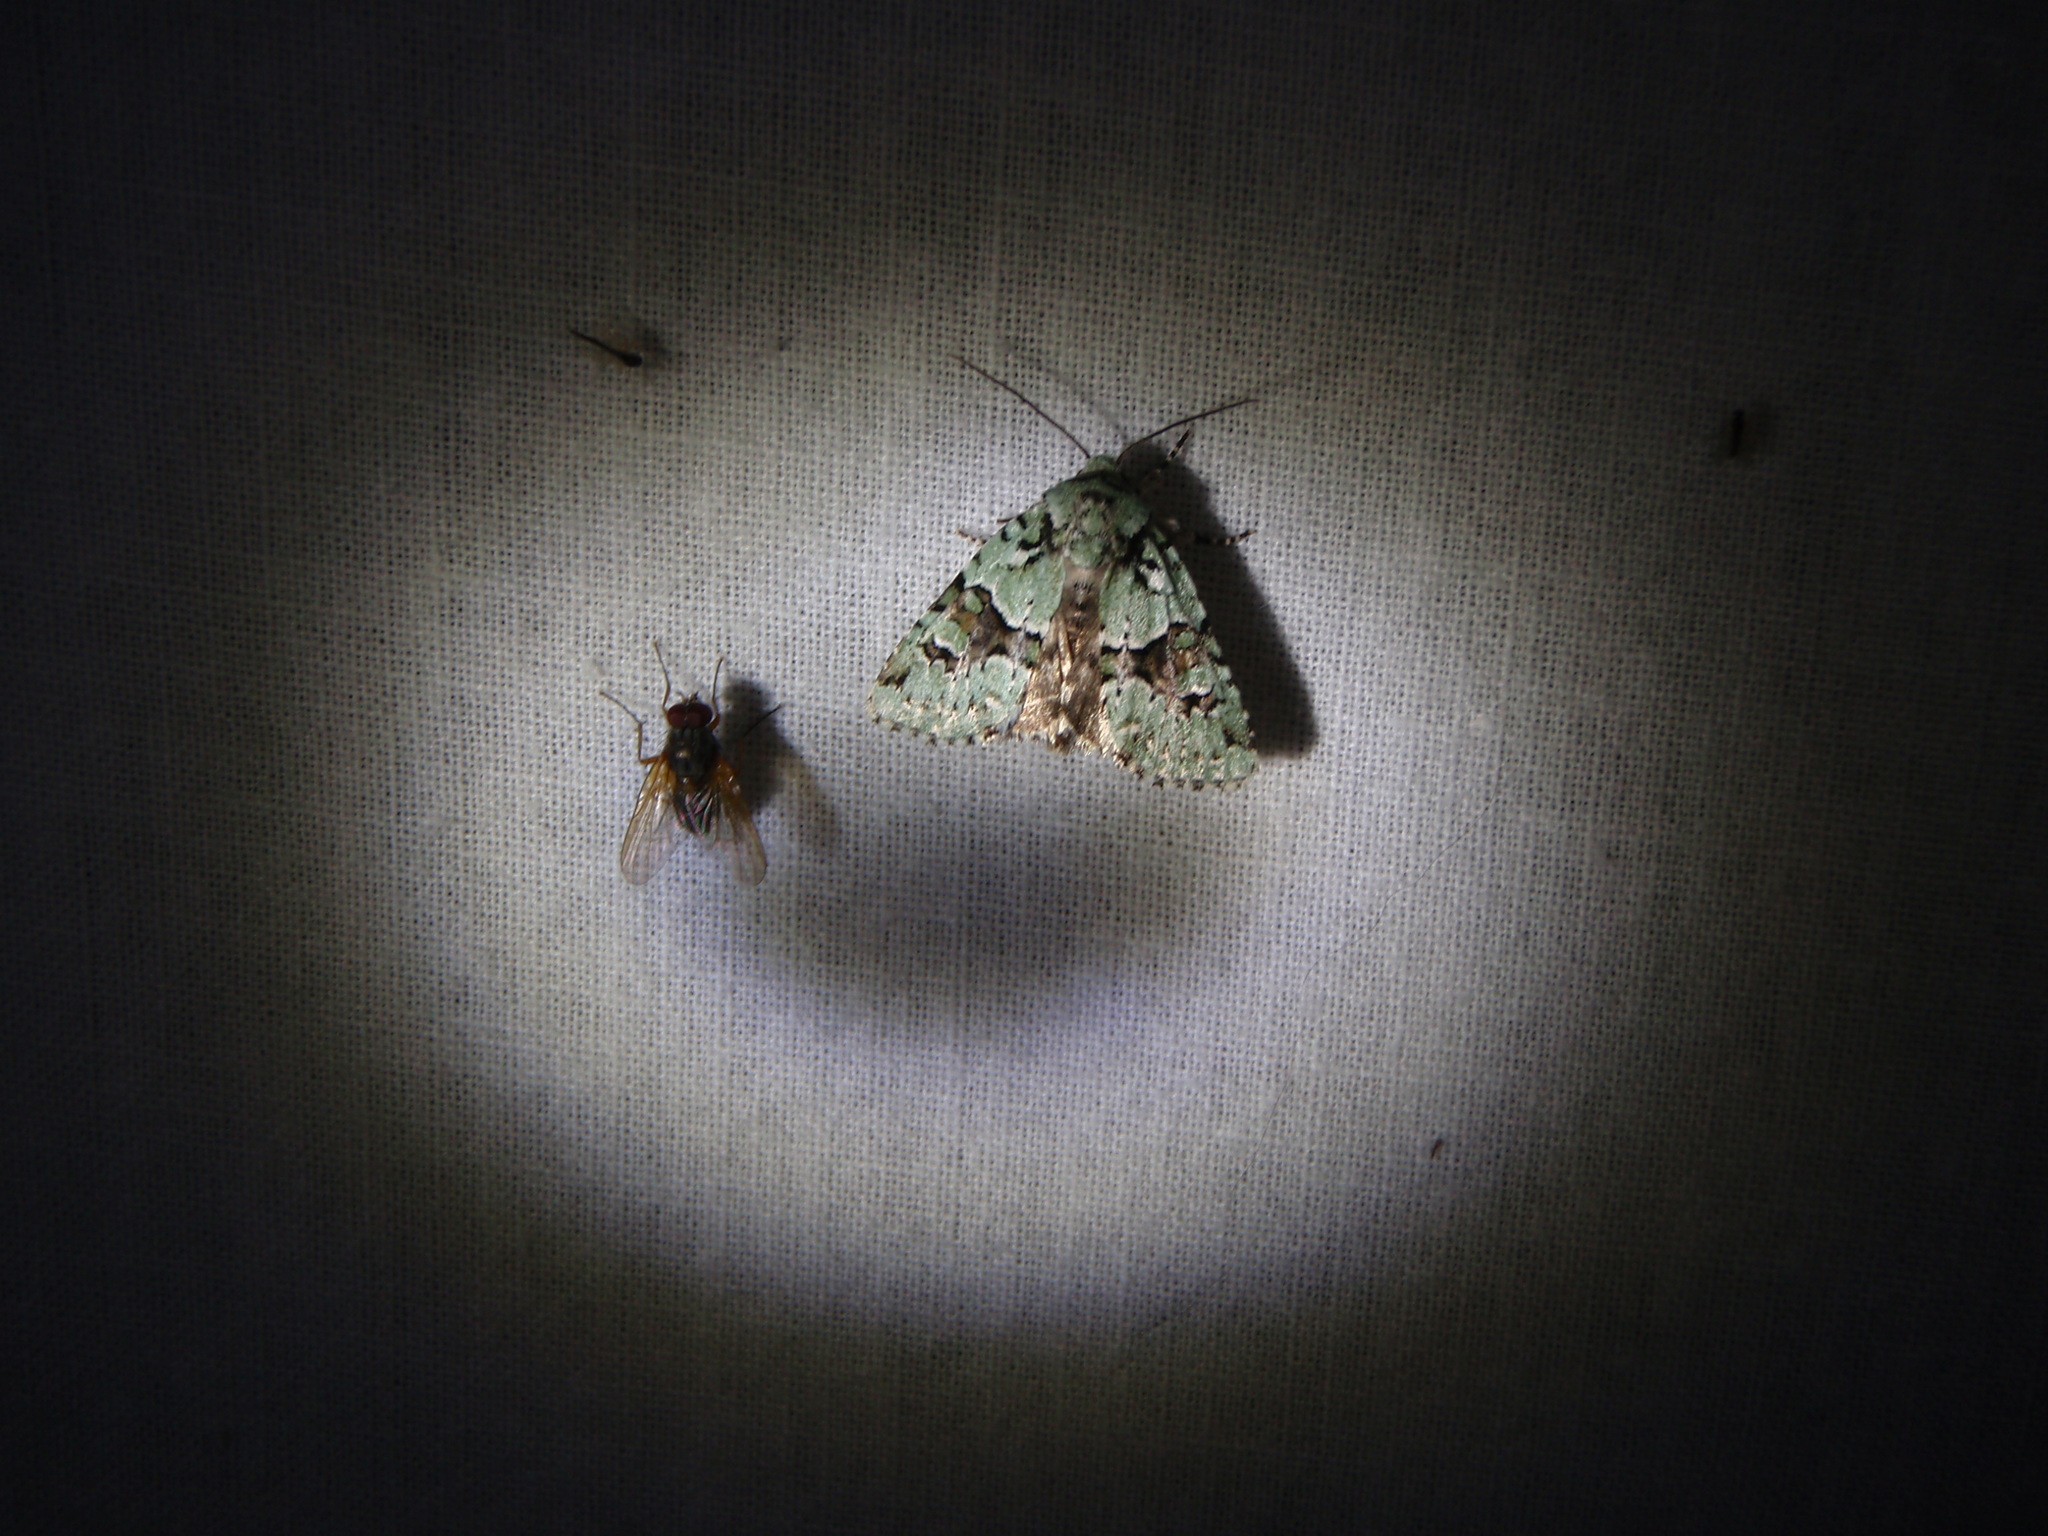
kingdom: Animalia
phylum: Arthropoda
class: Insecta
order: Lepidoptera
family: Noctuidae
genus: Leuconycta
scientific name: Leuconycta lepidula
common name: Marbled-green leuconycta moth
